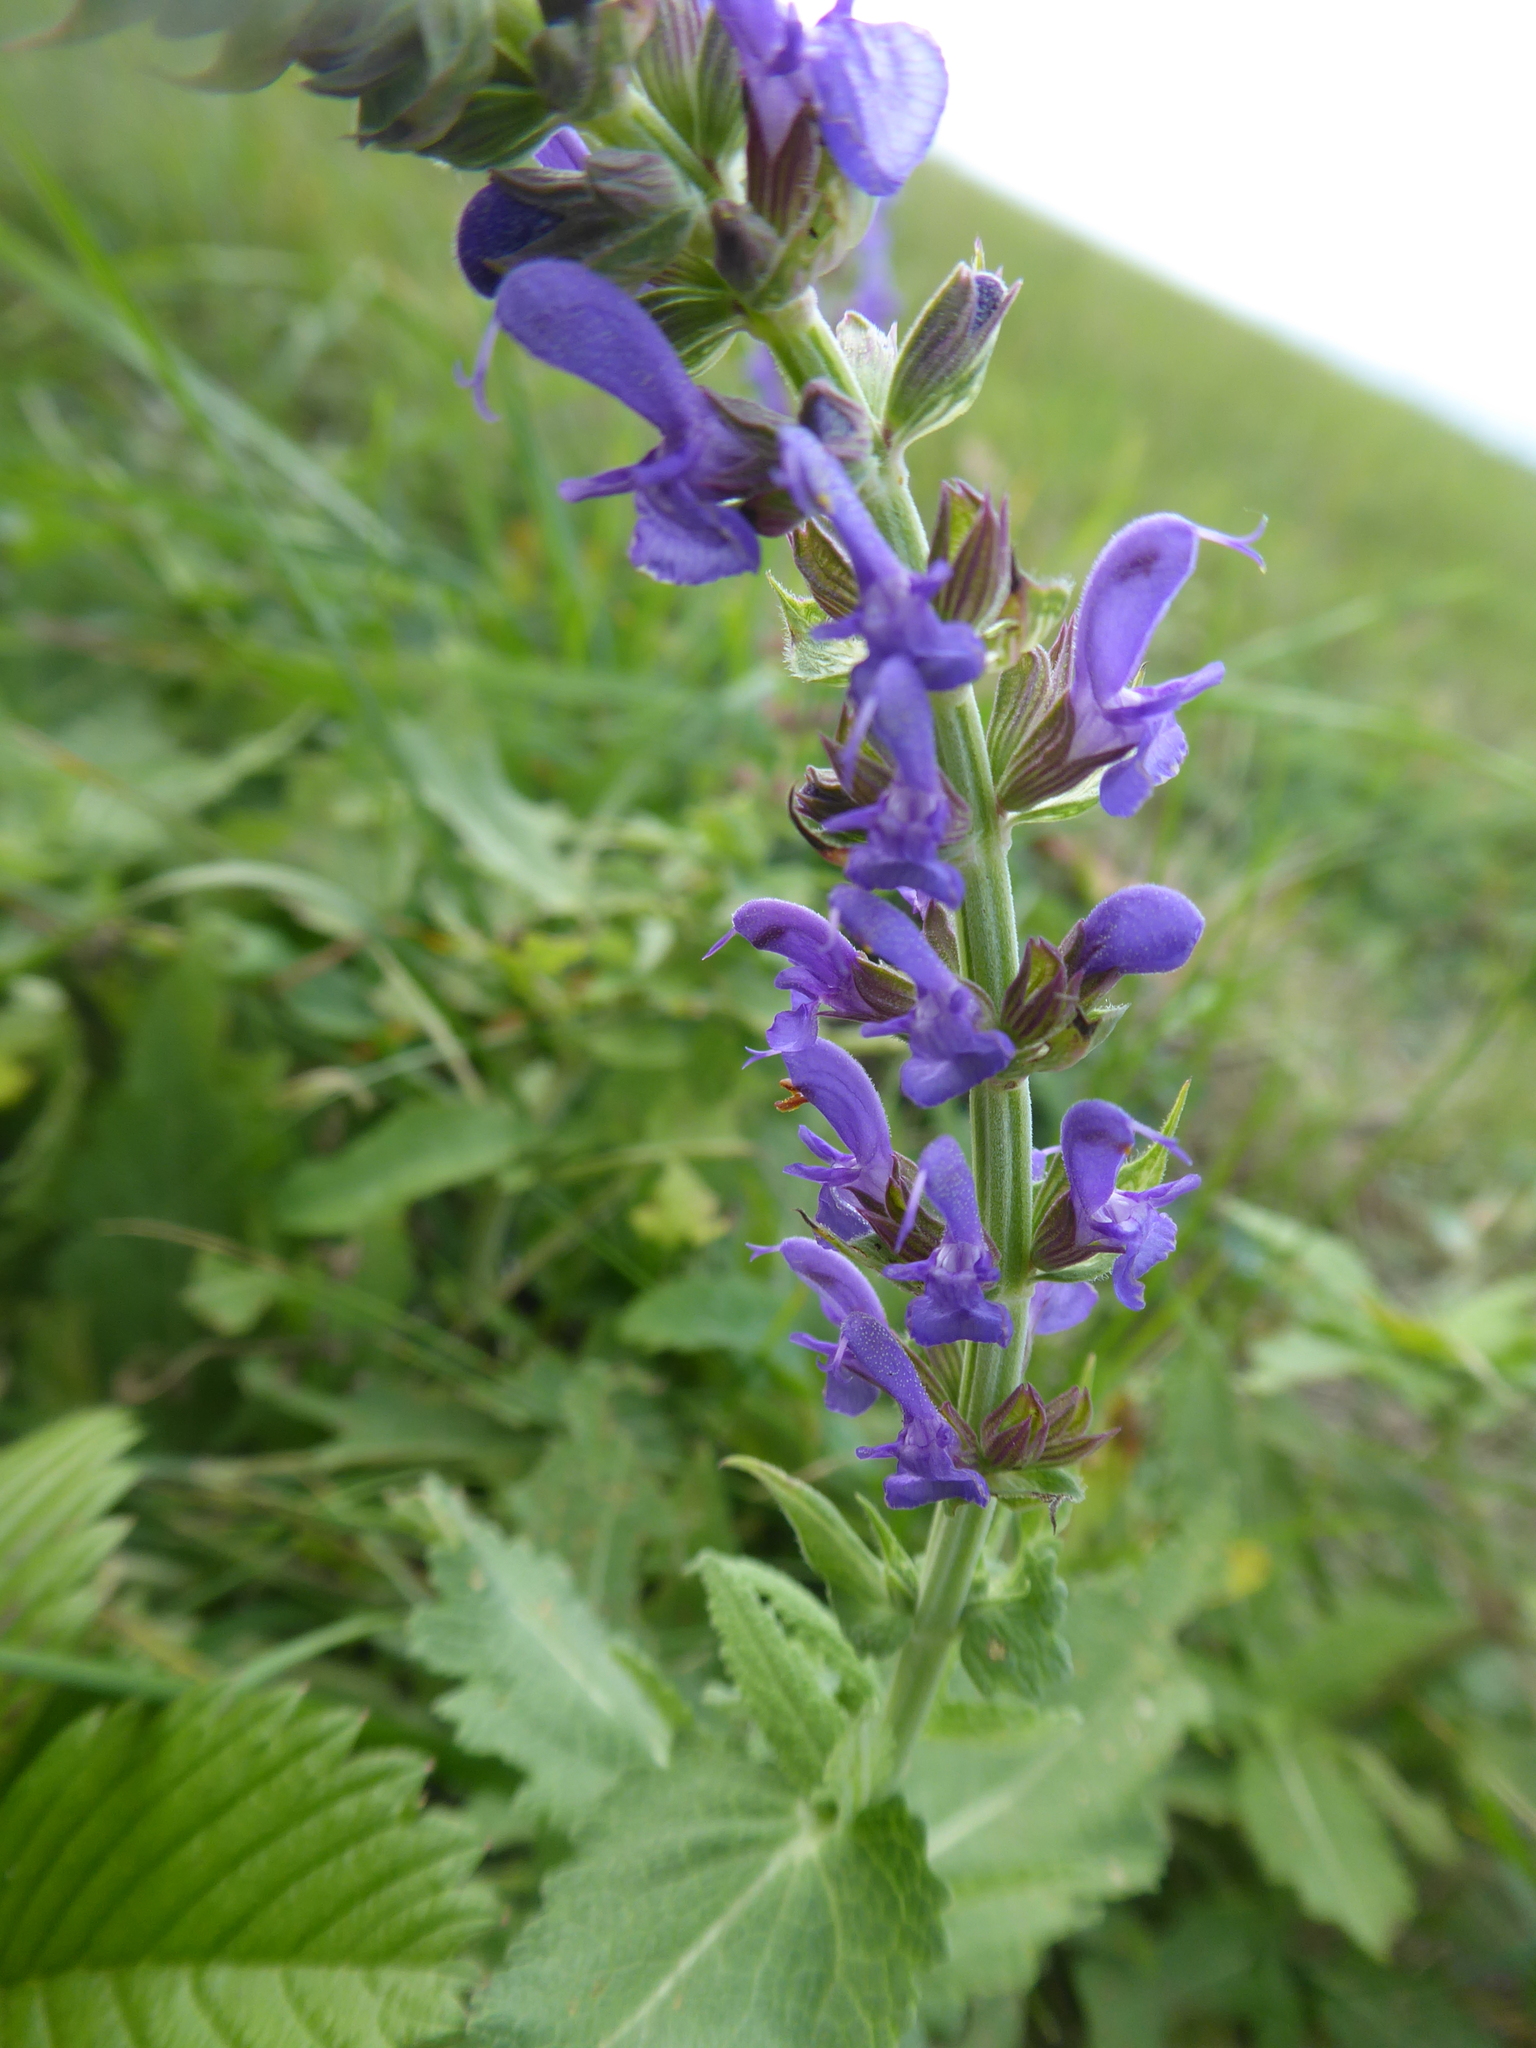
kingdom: Plantae
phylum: Tracheophyta
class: Magnoliopsida
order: Lamiales
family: Lamiaceae
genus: Salvia
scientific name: Salvia pratensis
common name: Meadow sage
